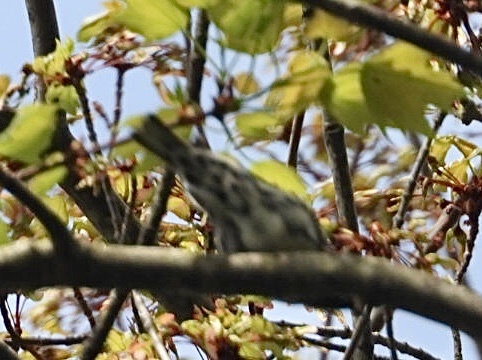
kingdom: Animalia
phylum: Chordata
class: Aves
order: Passeriformes
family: Parulidae
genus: Mniotilta
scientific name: Mniotilta varia
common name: Black-and-white warbler
